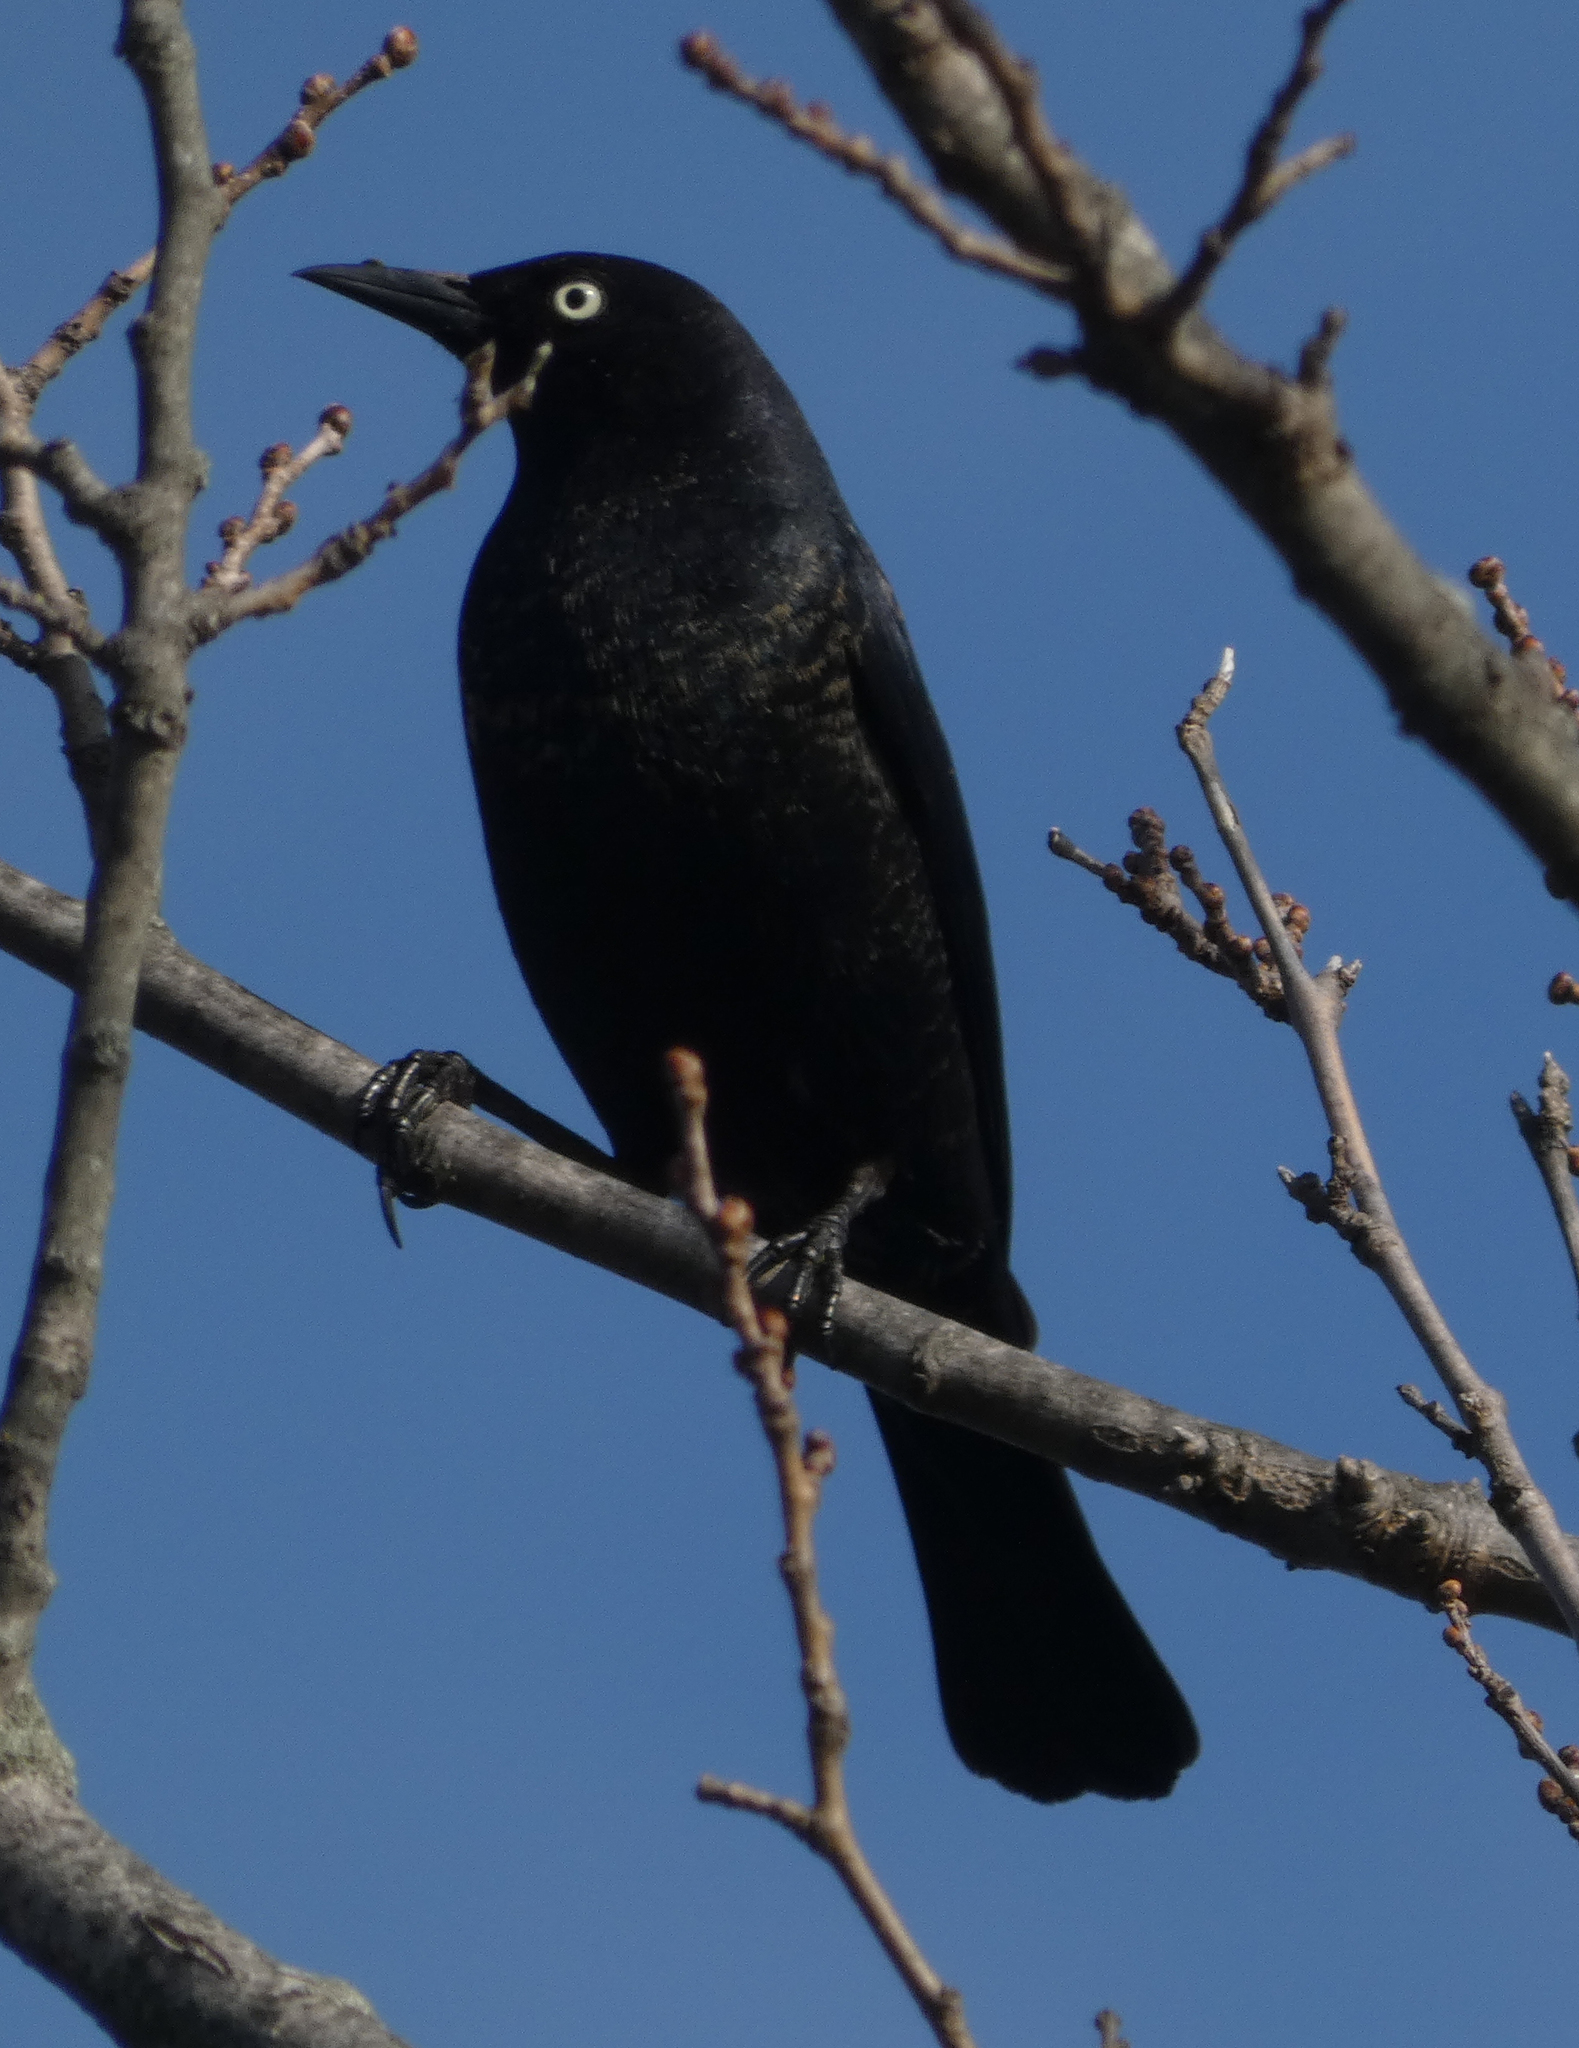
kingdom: Animalia
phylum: Chordata
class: Aves
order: Passeriformes
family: Icteridae
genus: Euphagus
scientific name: Euphagus carolinus
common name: Rusty blackbird
